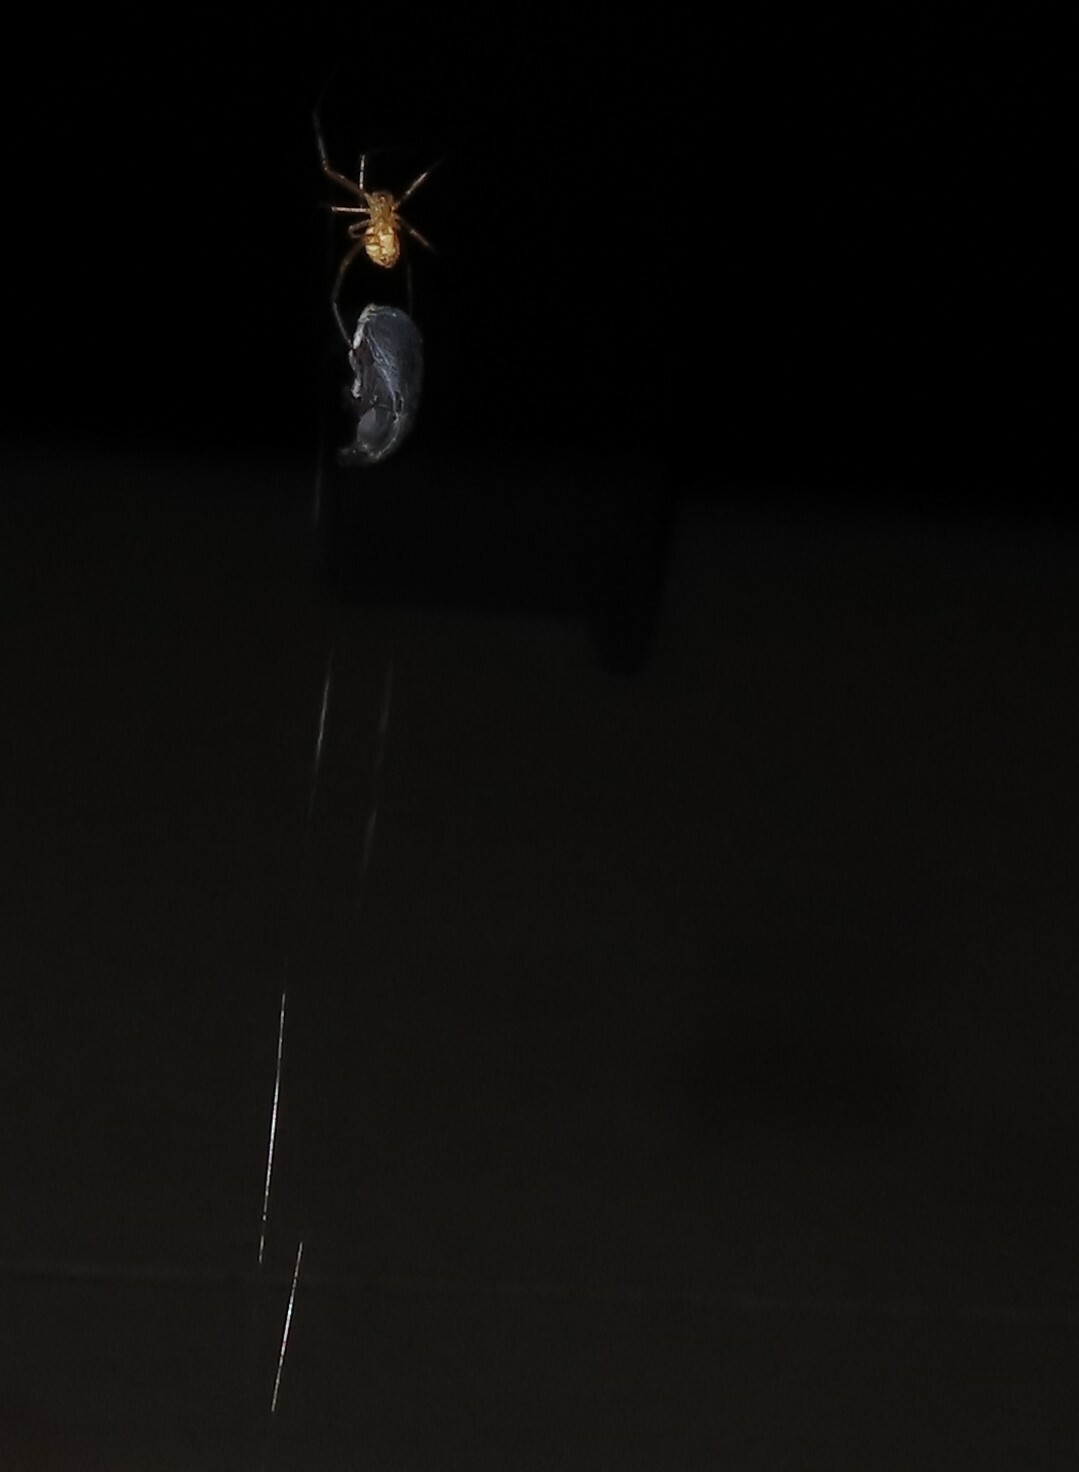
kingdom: Animalia
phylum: Arthropoda
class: Arachnida
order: Araneae
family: Theridiidae
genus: Latrodectus
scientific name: Latrodectus hesperus
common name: Western black widow
